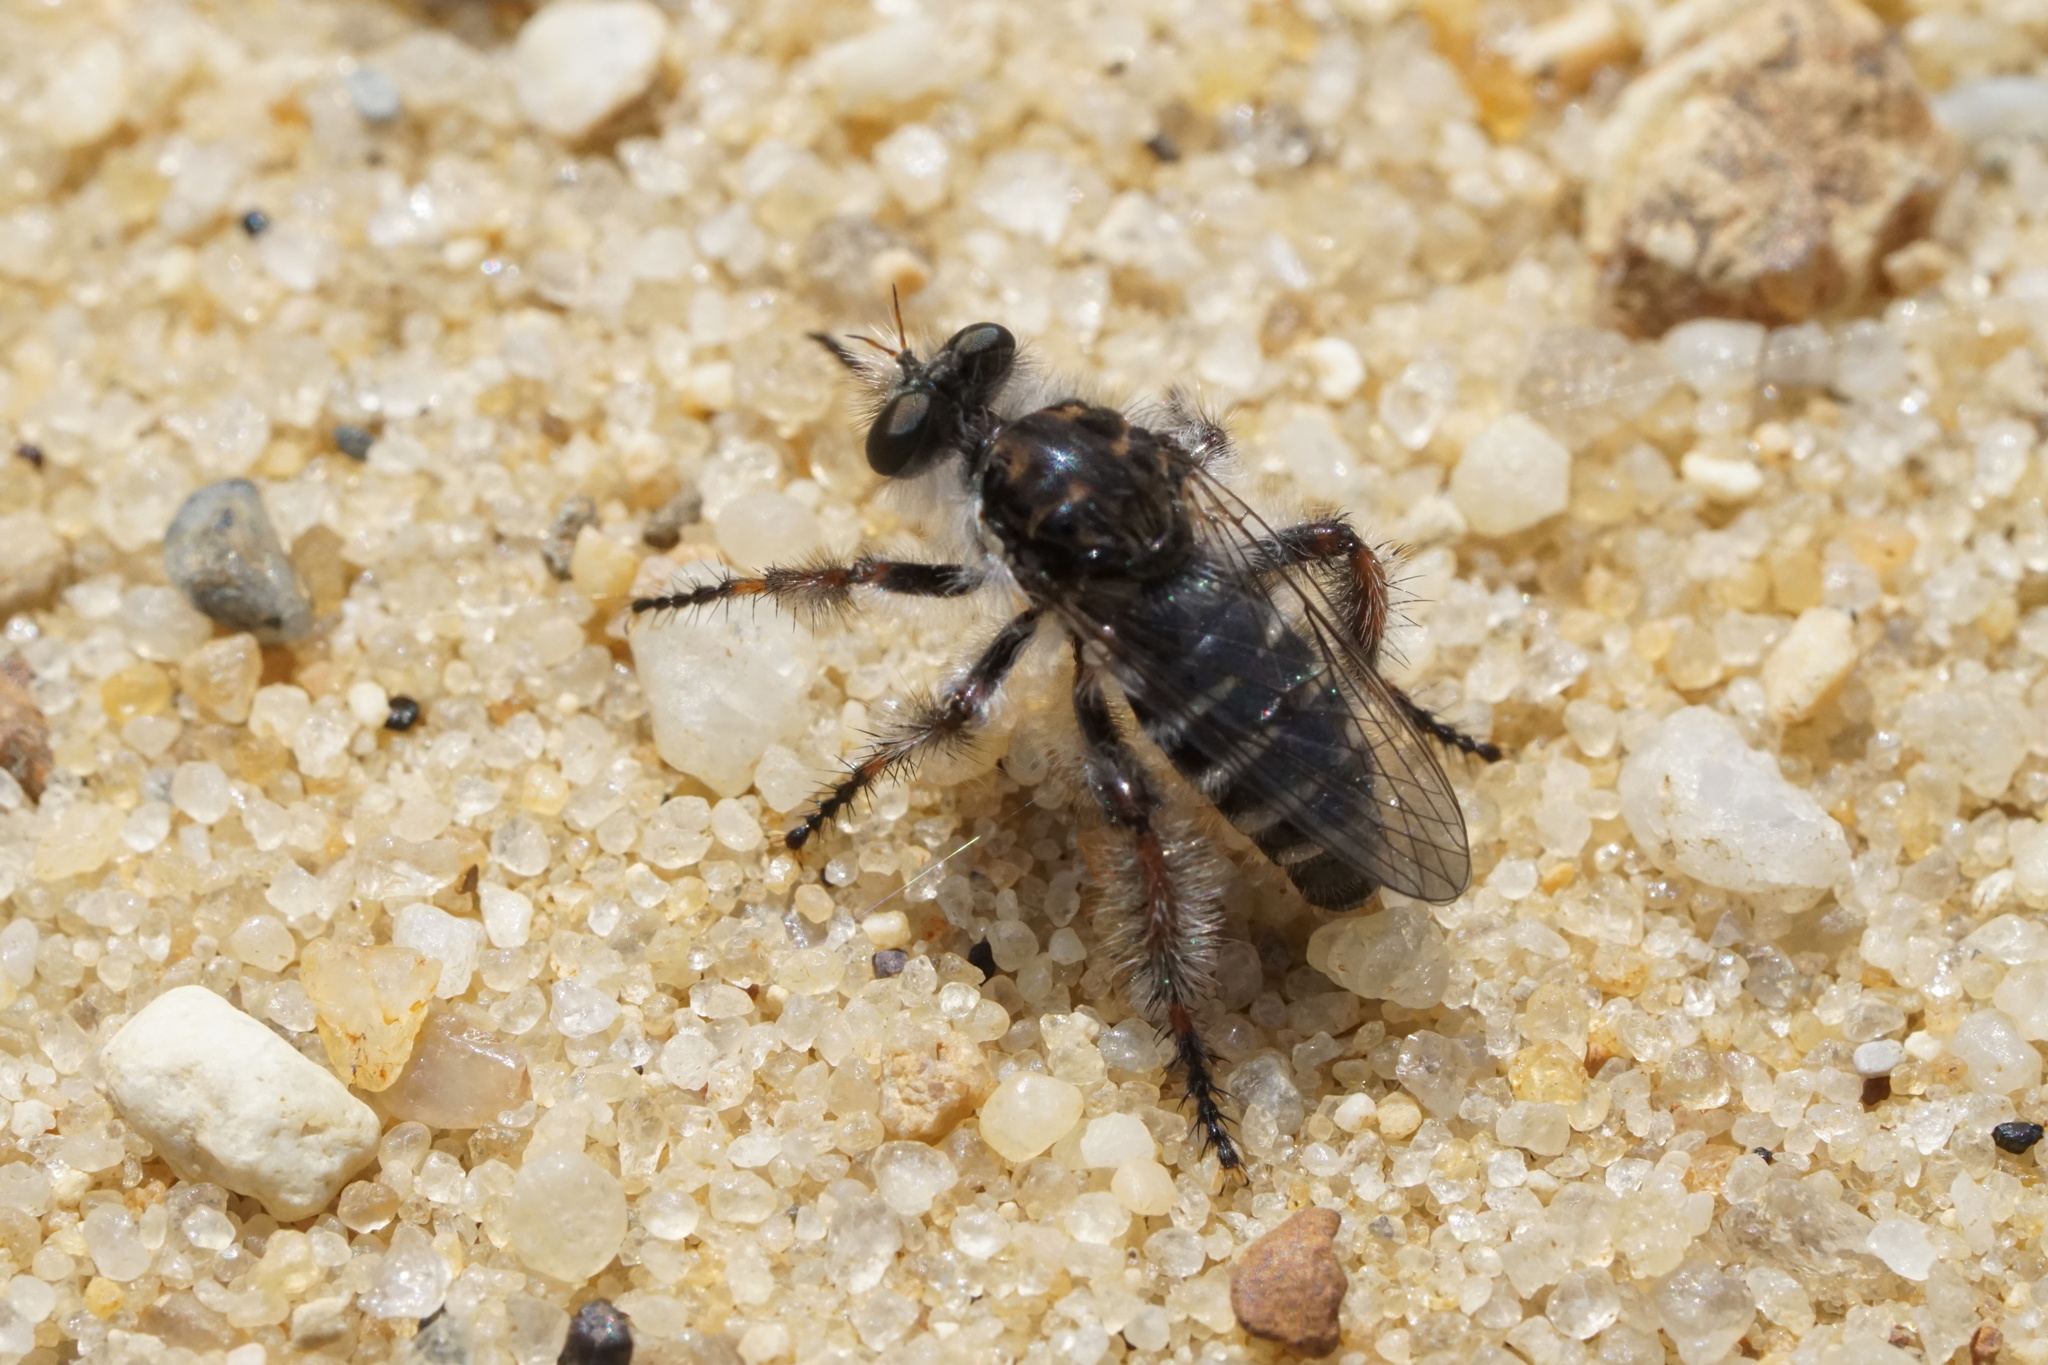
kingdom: Animalia
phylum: Arthropoda
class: Insecta
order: Diptera
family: Asilidae
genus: Cyrtopogon
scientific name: Cyrtopogon marginalis
